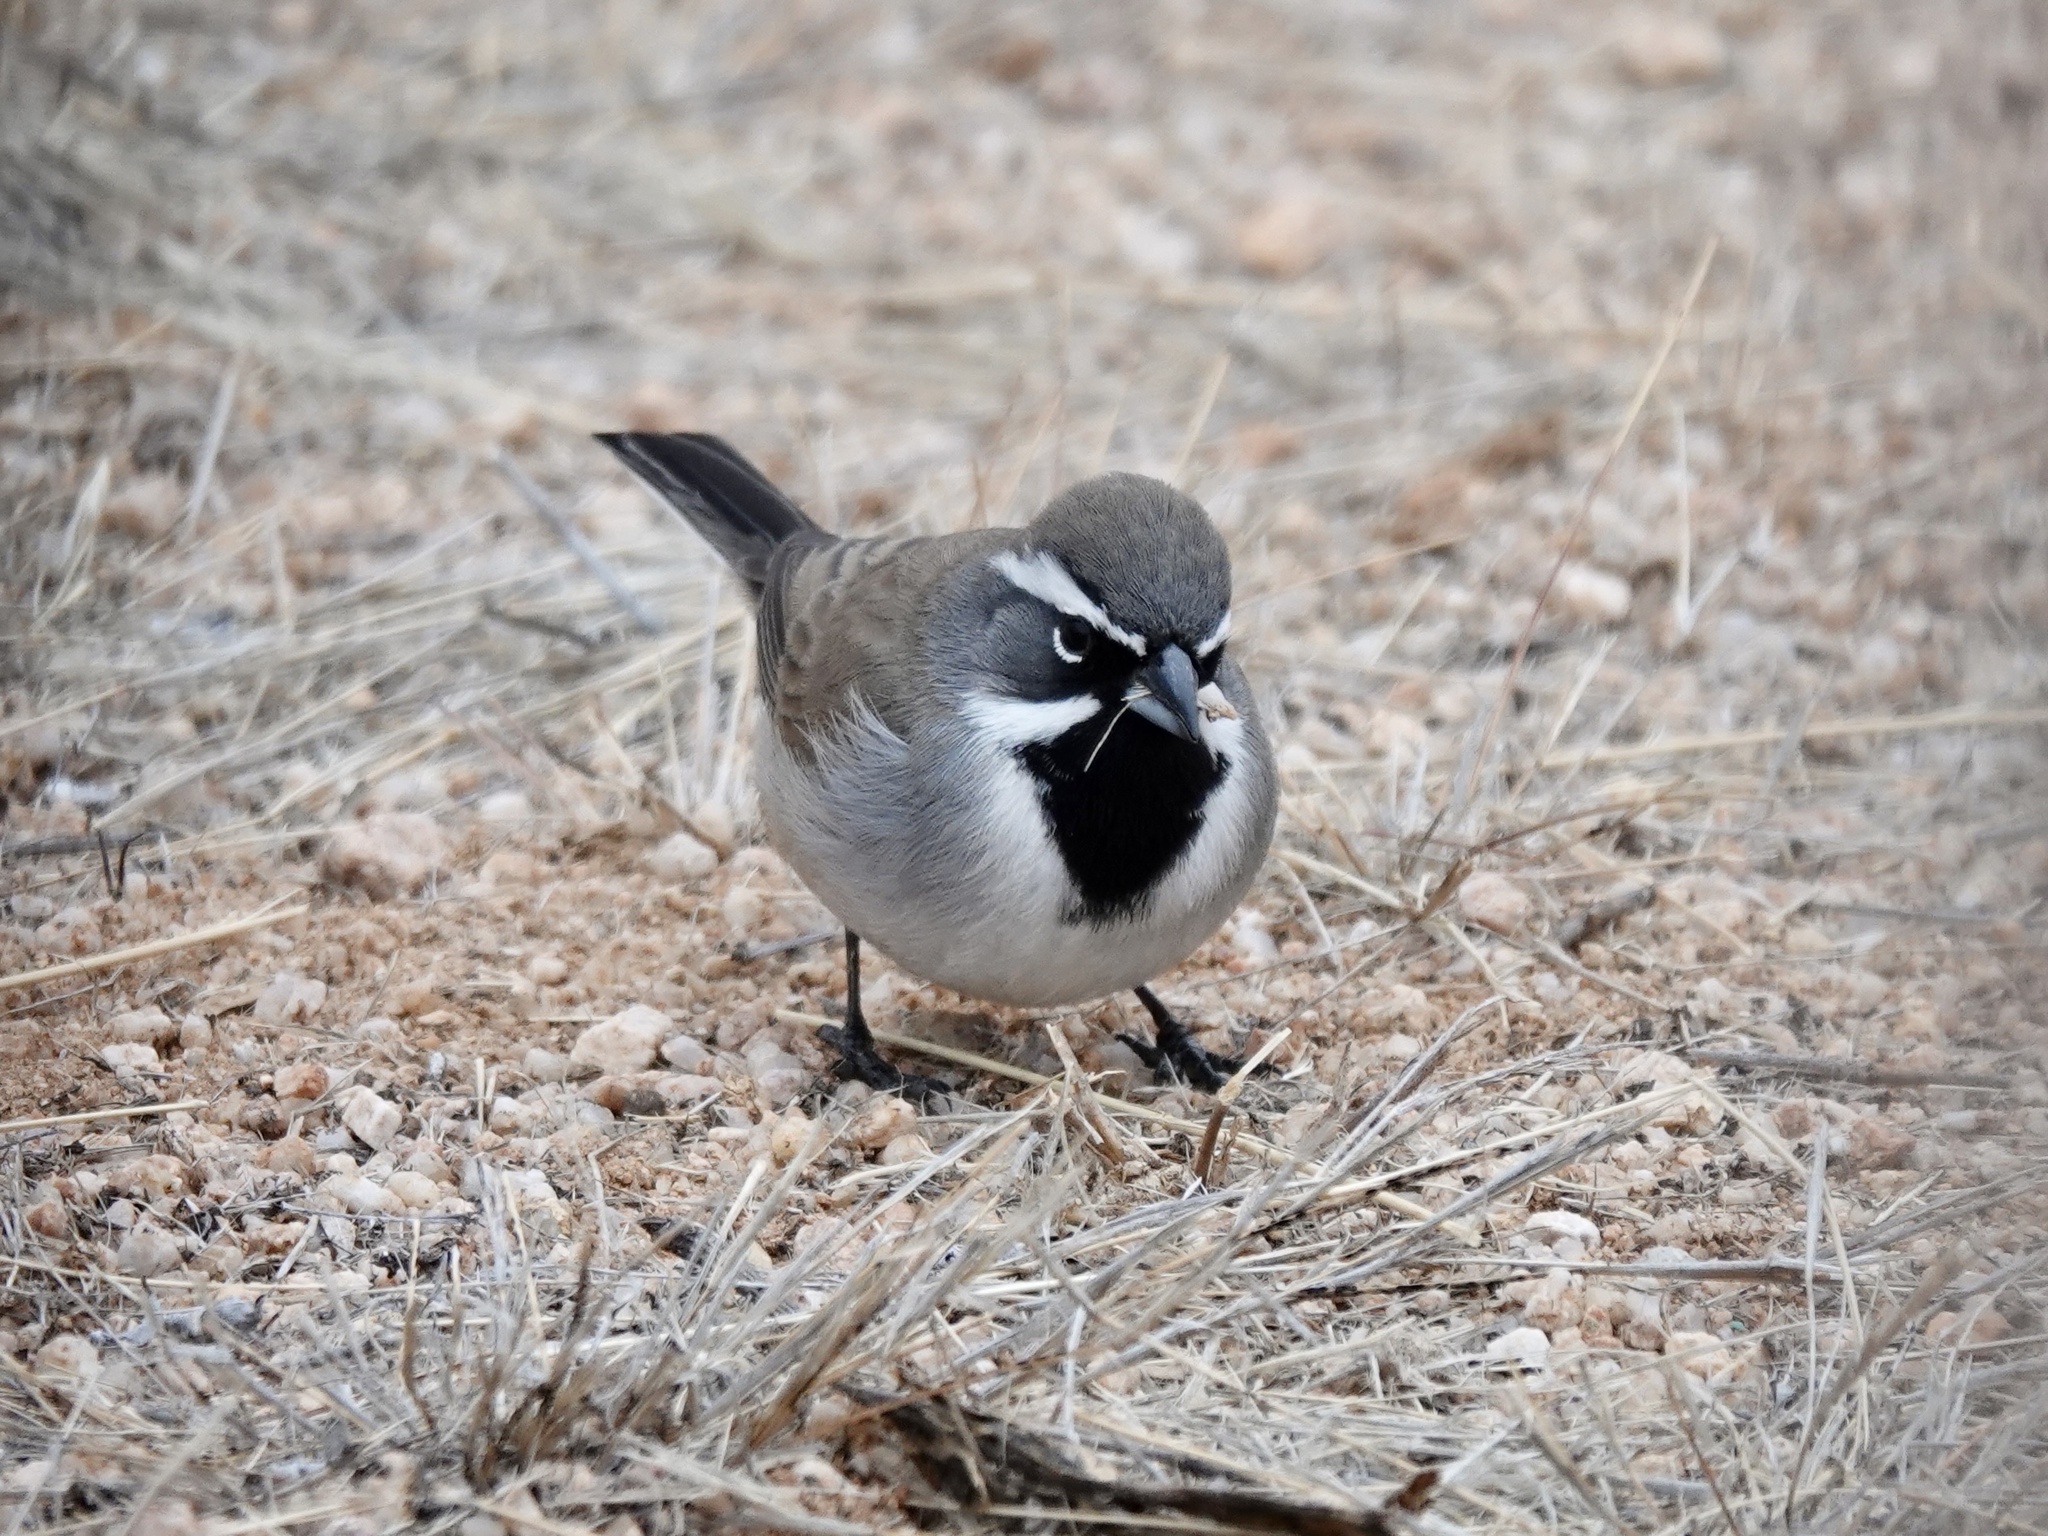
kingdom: Animalia
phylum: Chordata
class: Aves
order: Passeriformes
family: Passerellidae
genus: Amphispiza
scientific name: Amphispiza bilineata
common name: Black-throated sparrow
